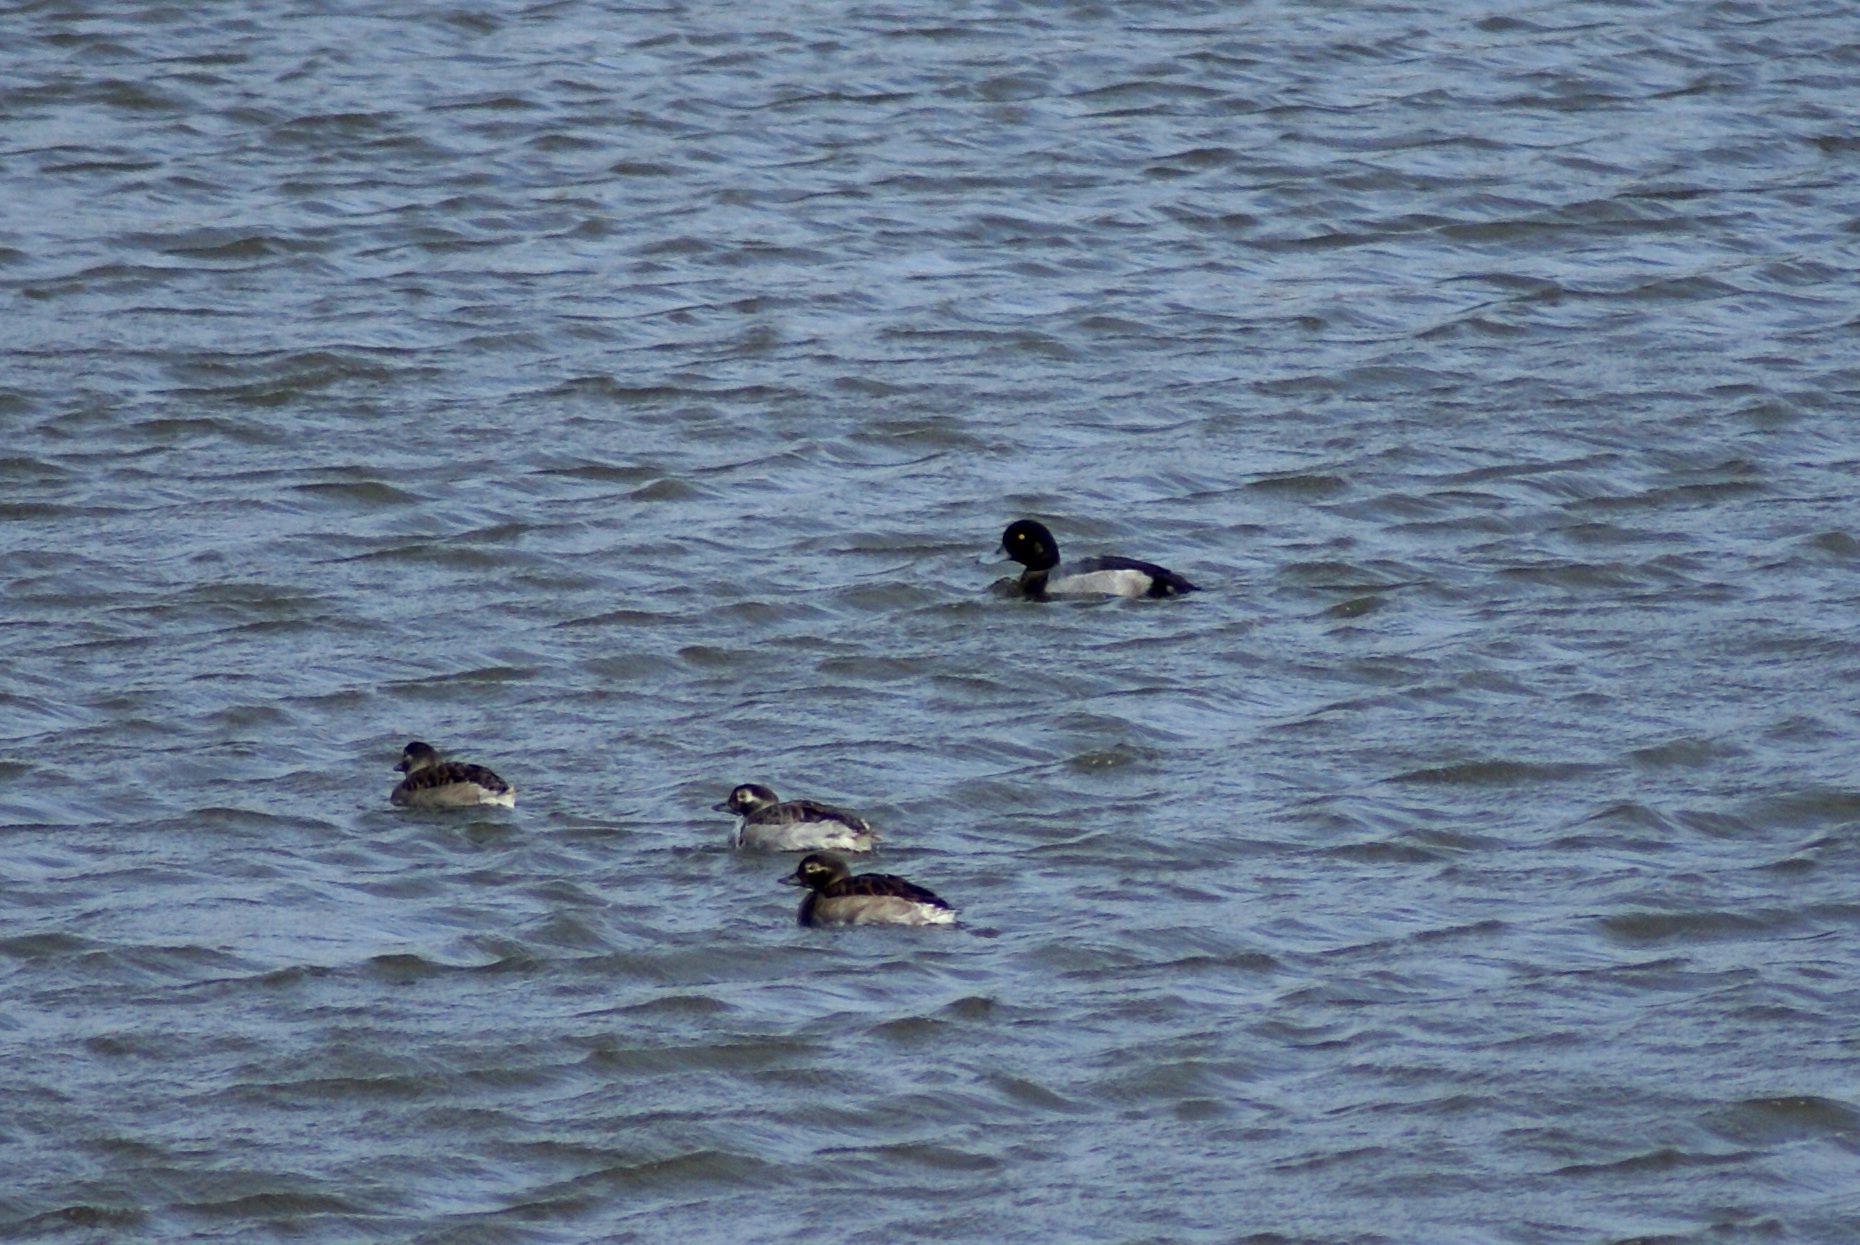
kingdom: Animalia
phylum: Chordata
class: Aves
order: Anseriformes
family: Anatidae
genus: Aythya
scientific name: Aythya marila
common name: Greater scaup
